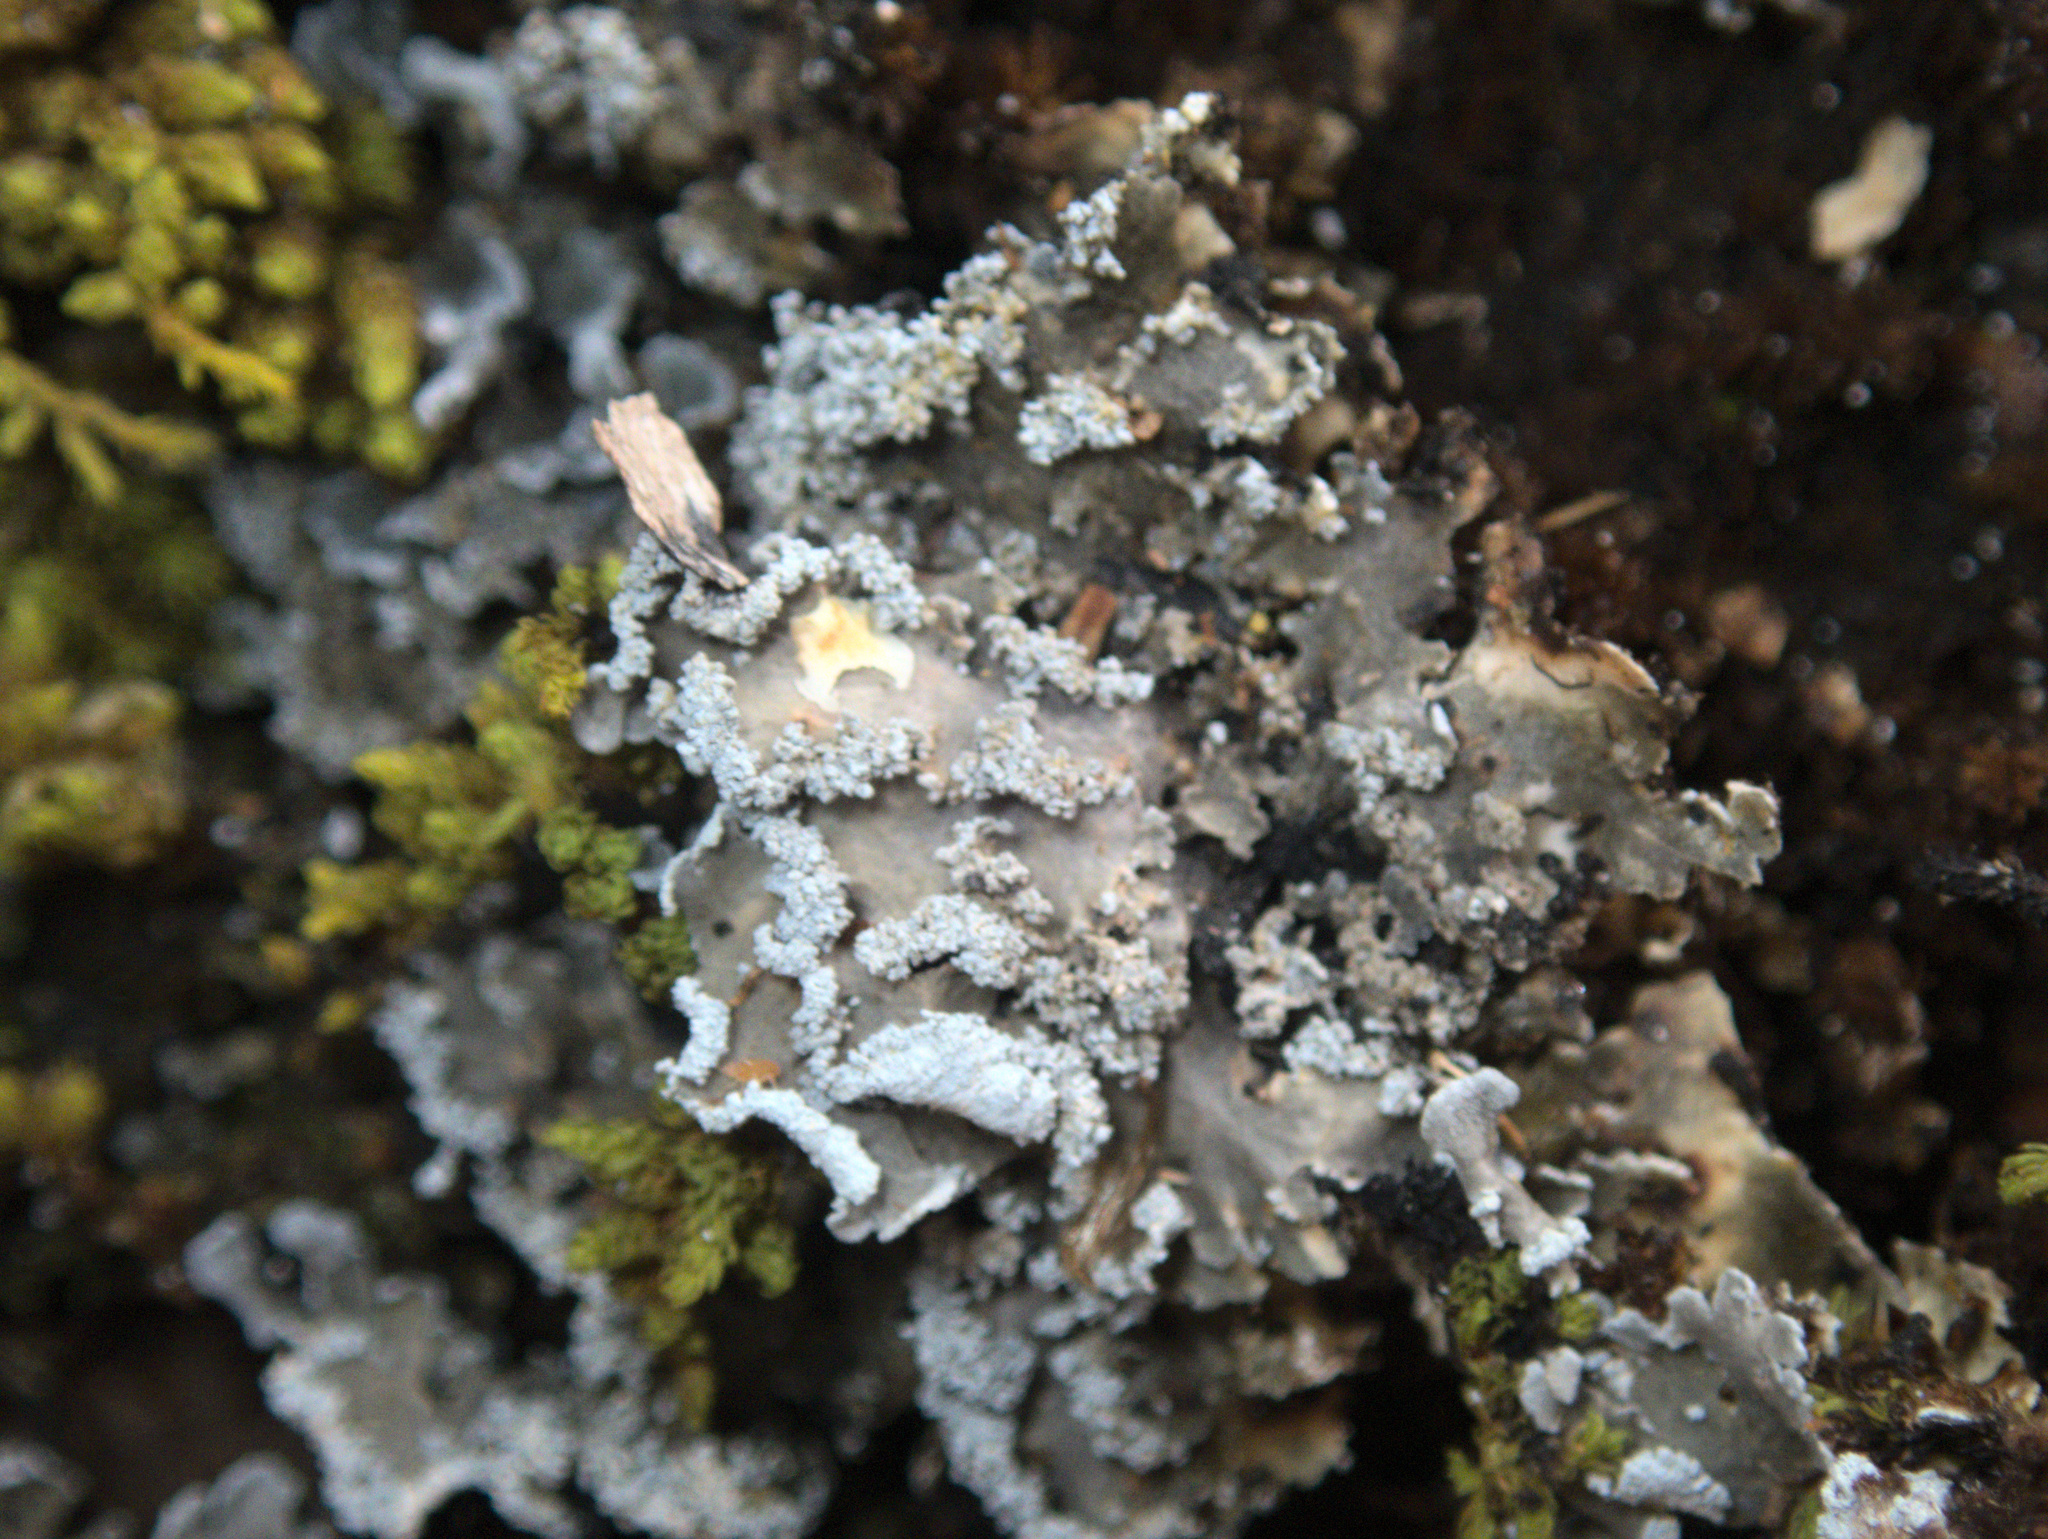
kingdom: Fungi
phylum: Ascomycota
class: Lecanoromycetes
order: Peltigerales
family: Pannariaceae
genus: Pannaria
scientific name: Pannaria fulvescens
